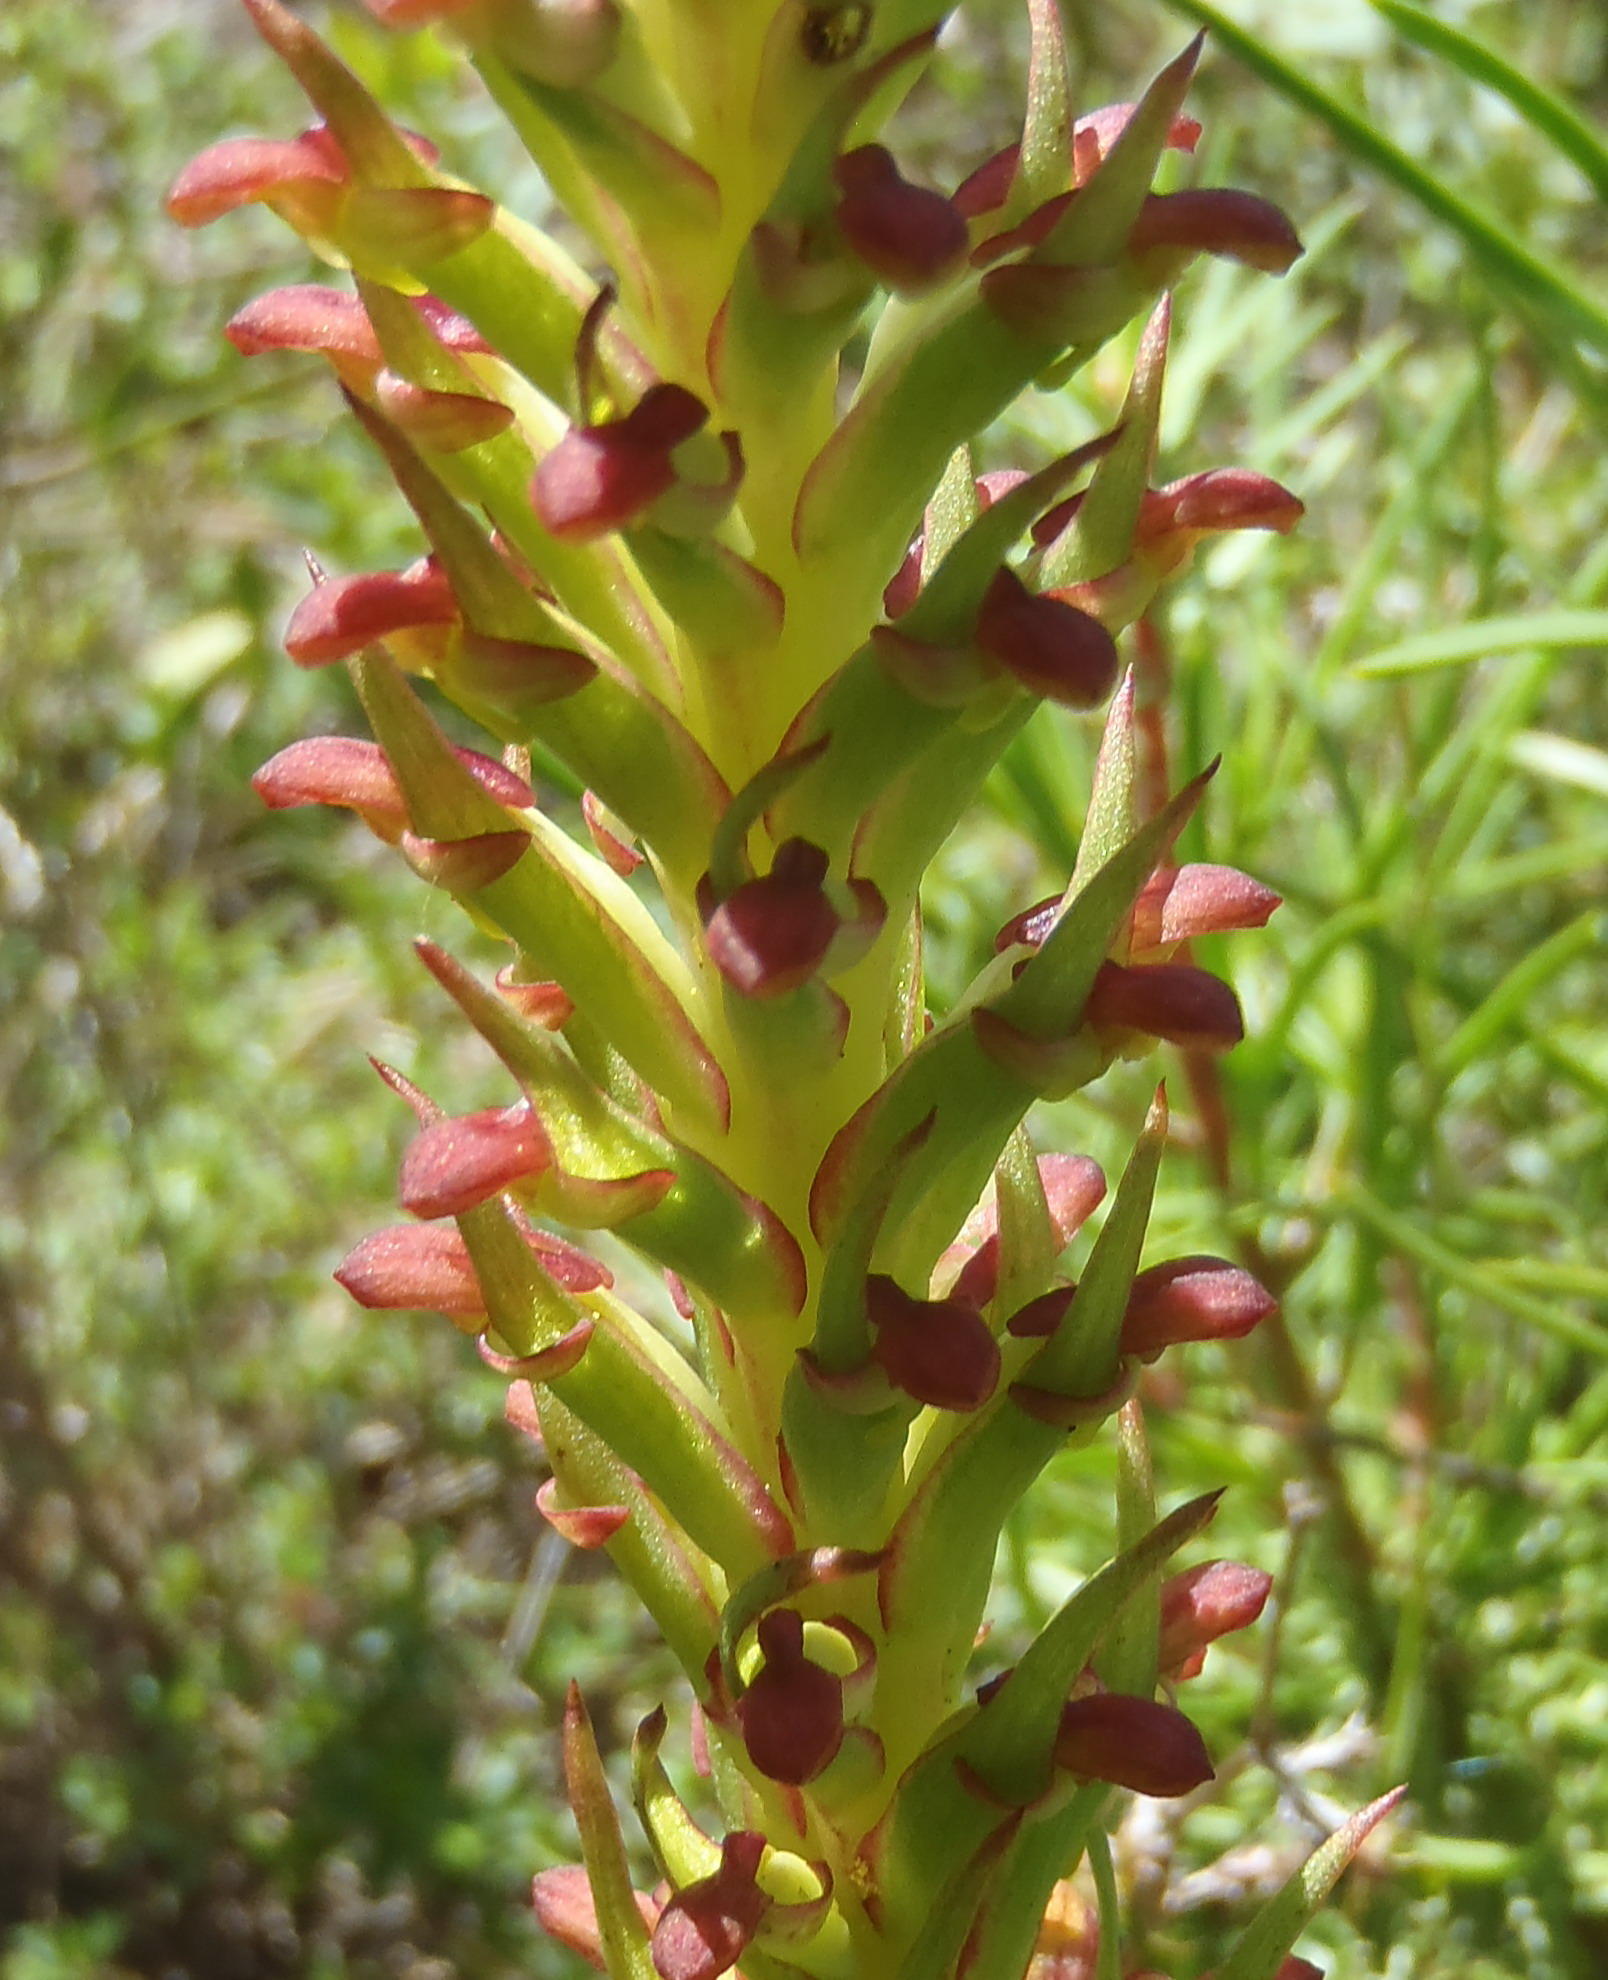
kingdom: Plantae
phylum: Tracheophyta
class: Liliopsida
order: Asparagales
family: Orchidaceae
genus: Disa
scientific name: Disa densiflora
